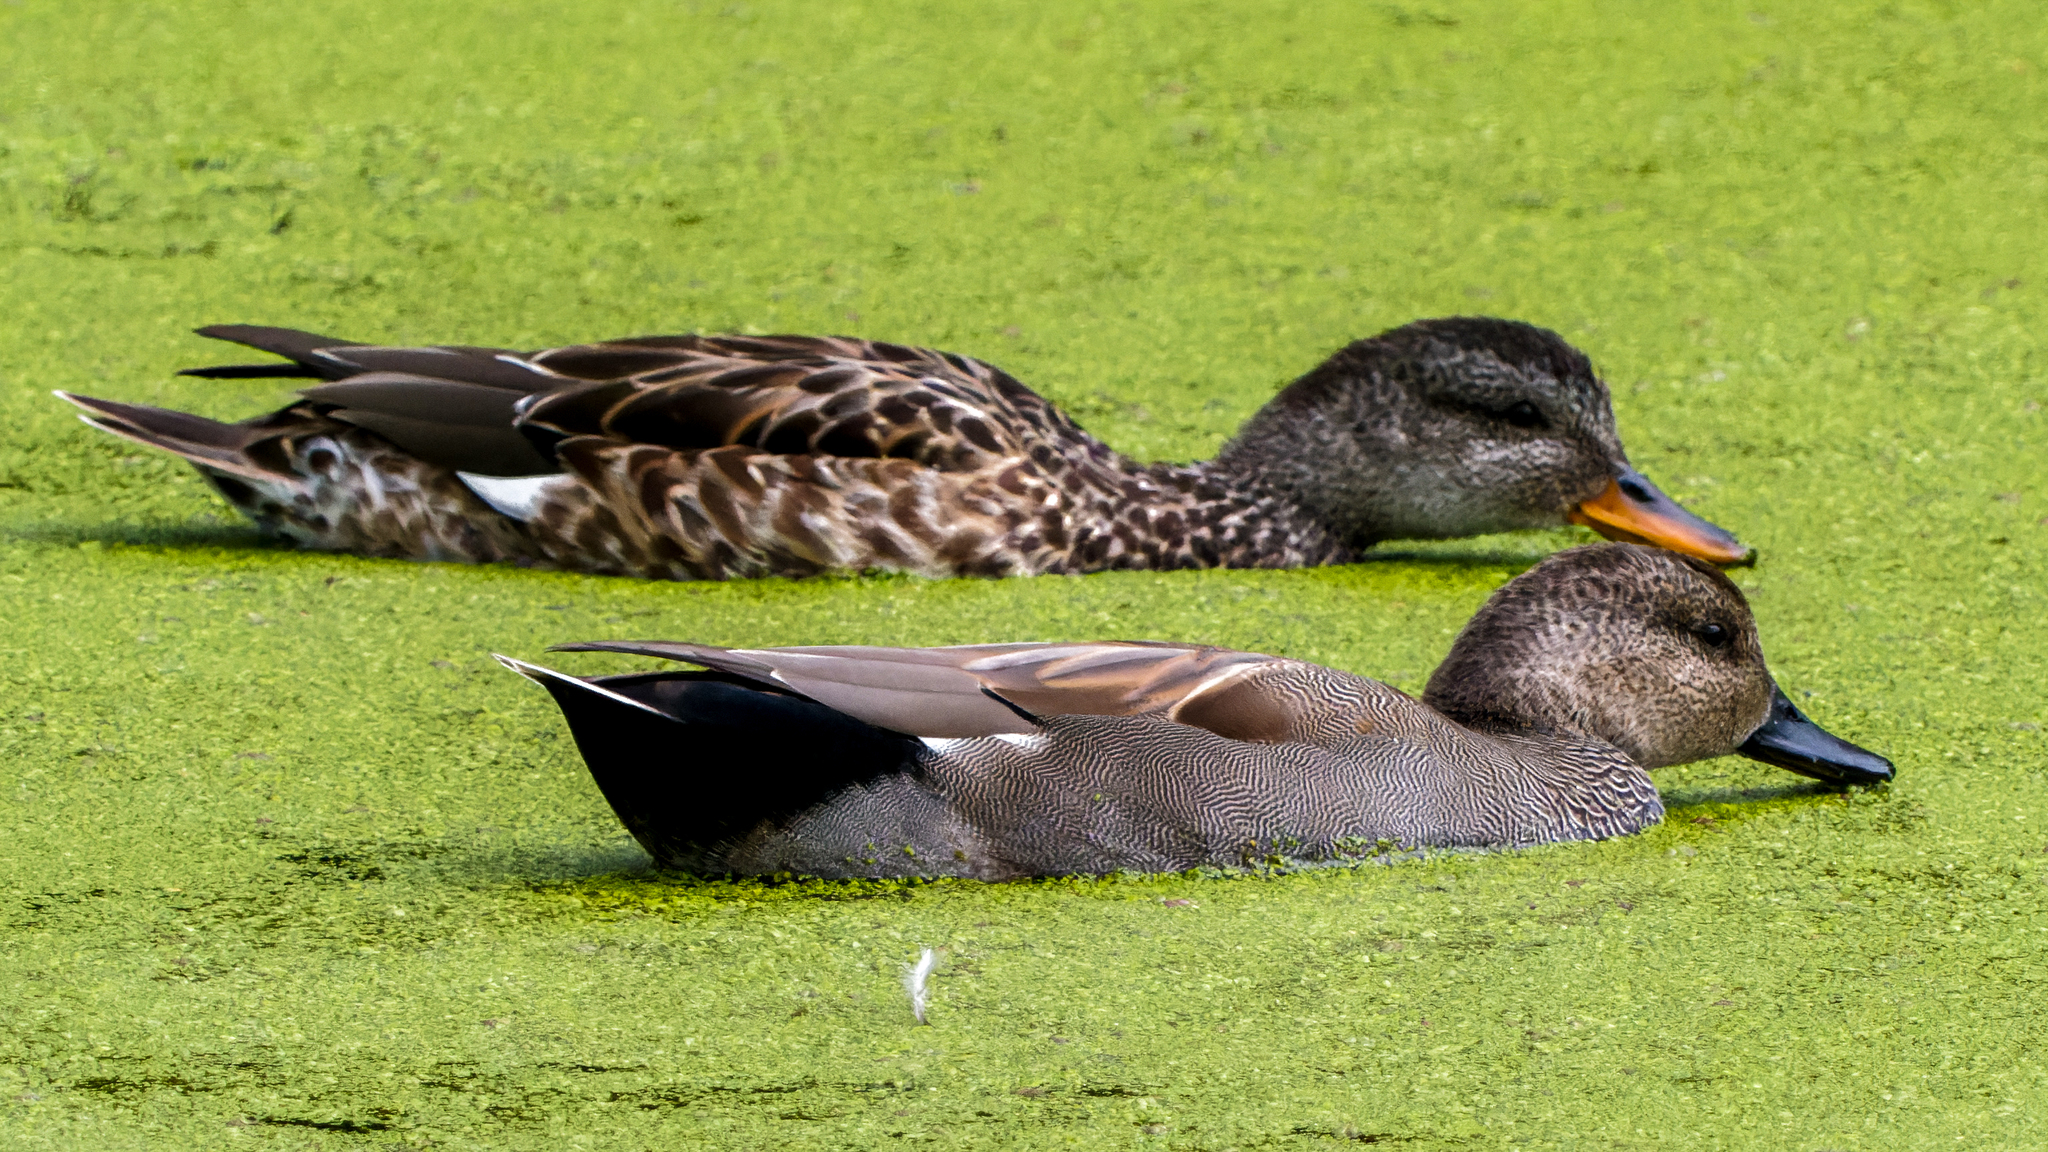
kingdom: Animalia
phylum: Chordata
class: Aves
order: Anseriformes
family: Anatidae
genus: Mareca
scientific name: Mareca strepera
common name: Gadwall
